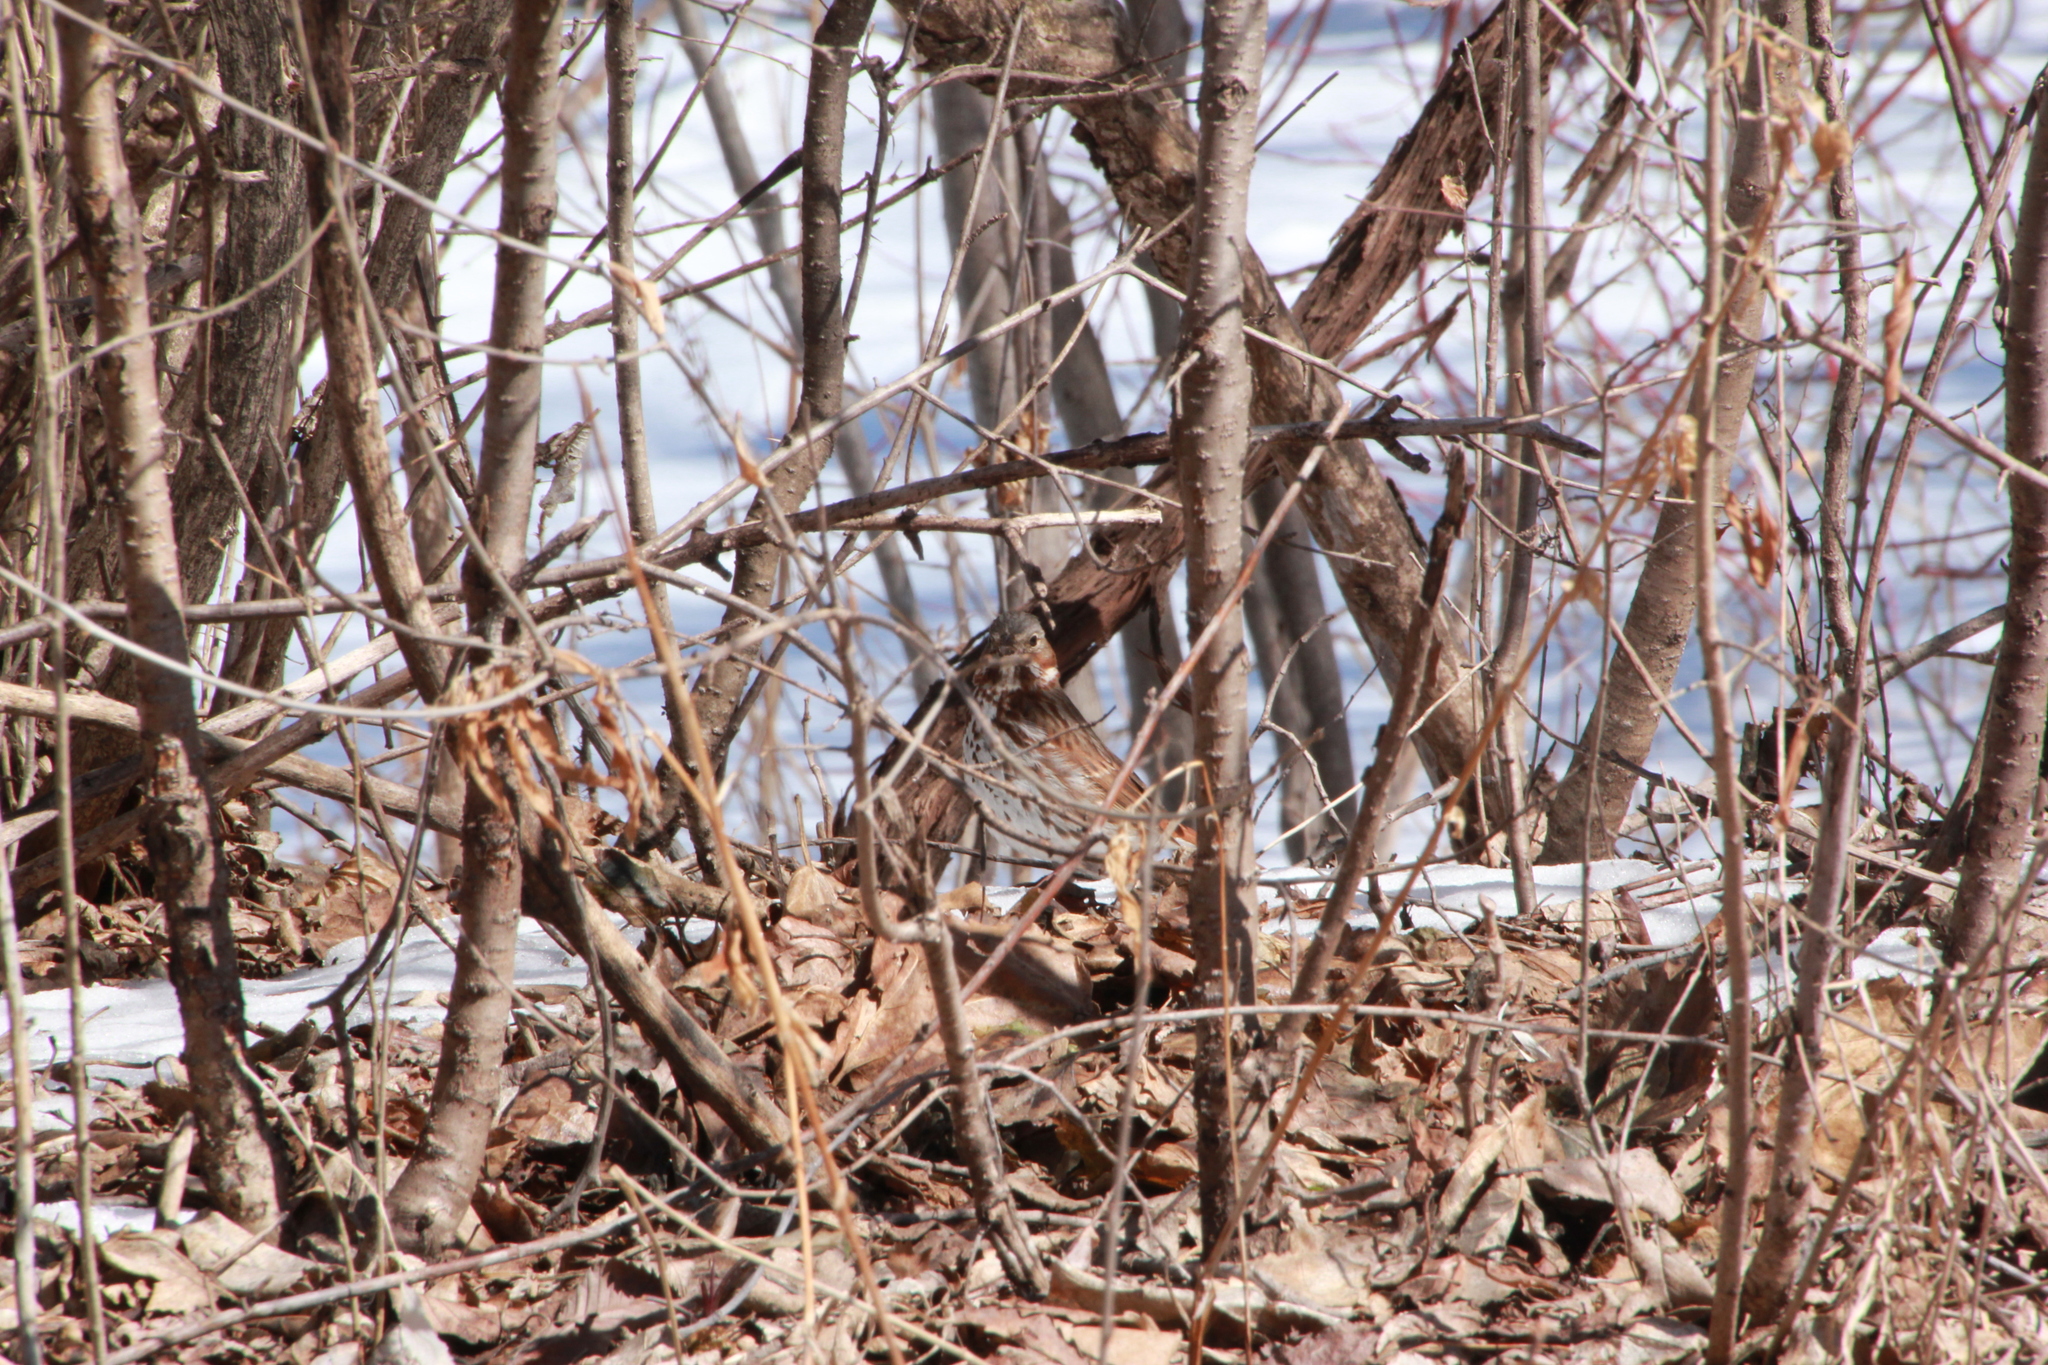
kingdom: Animalia
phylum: Chordata
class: Aves
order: Passeriformes
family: Passerellidae
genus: Passerella
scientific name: Passerella iliaca
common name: Fox sparrow
